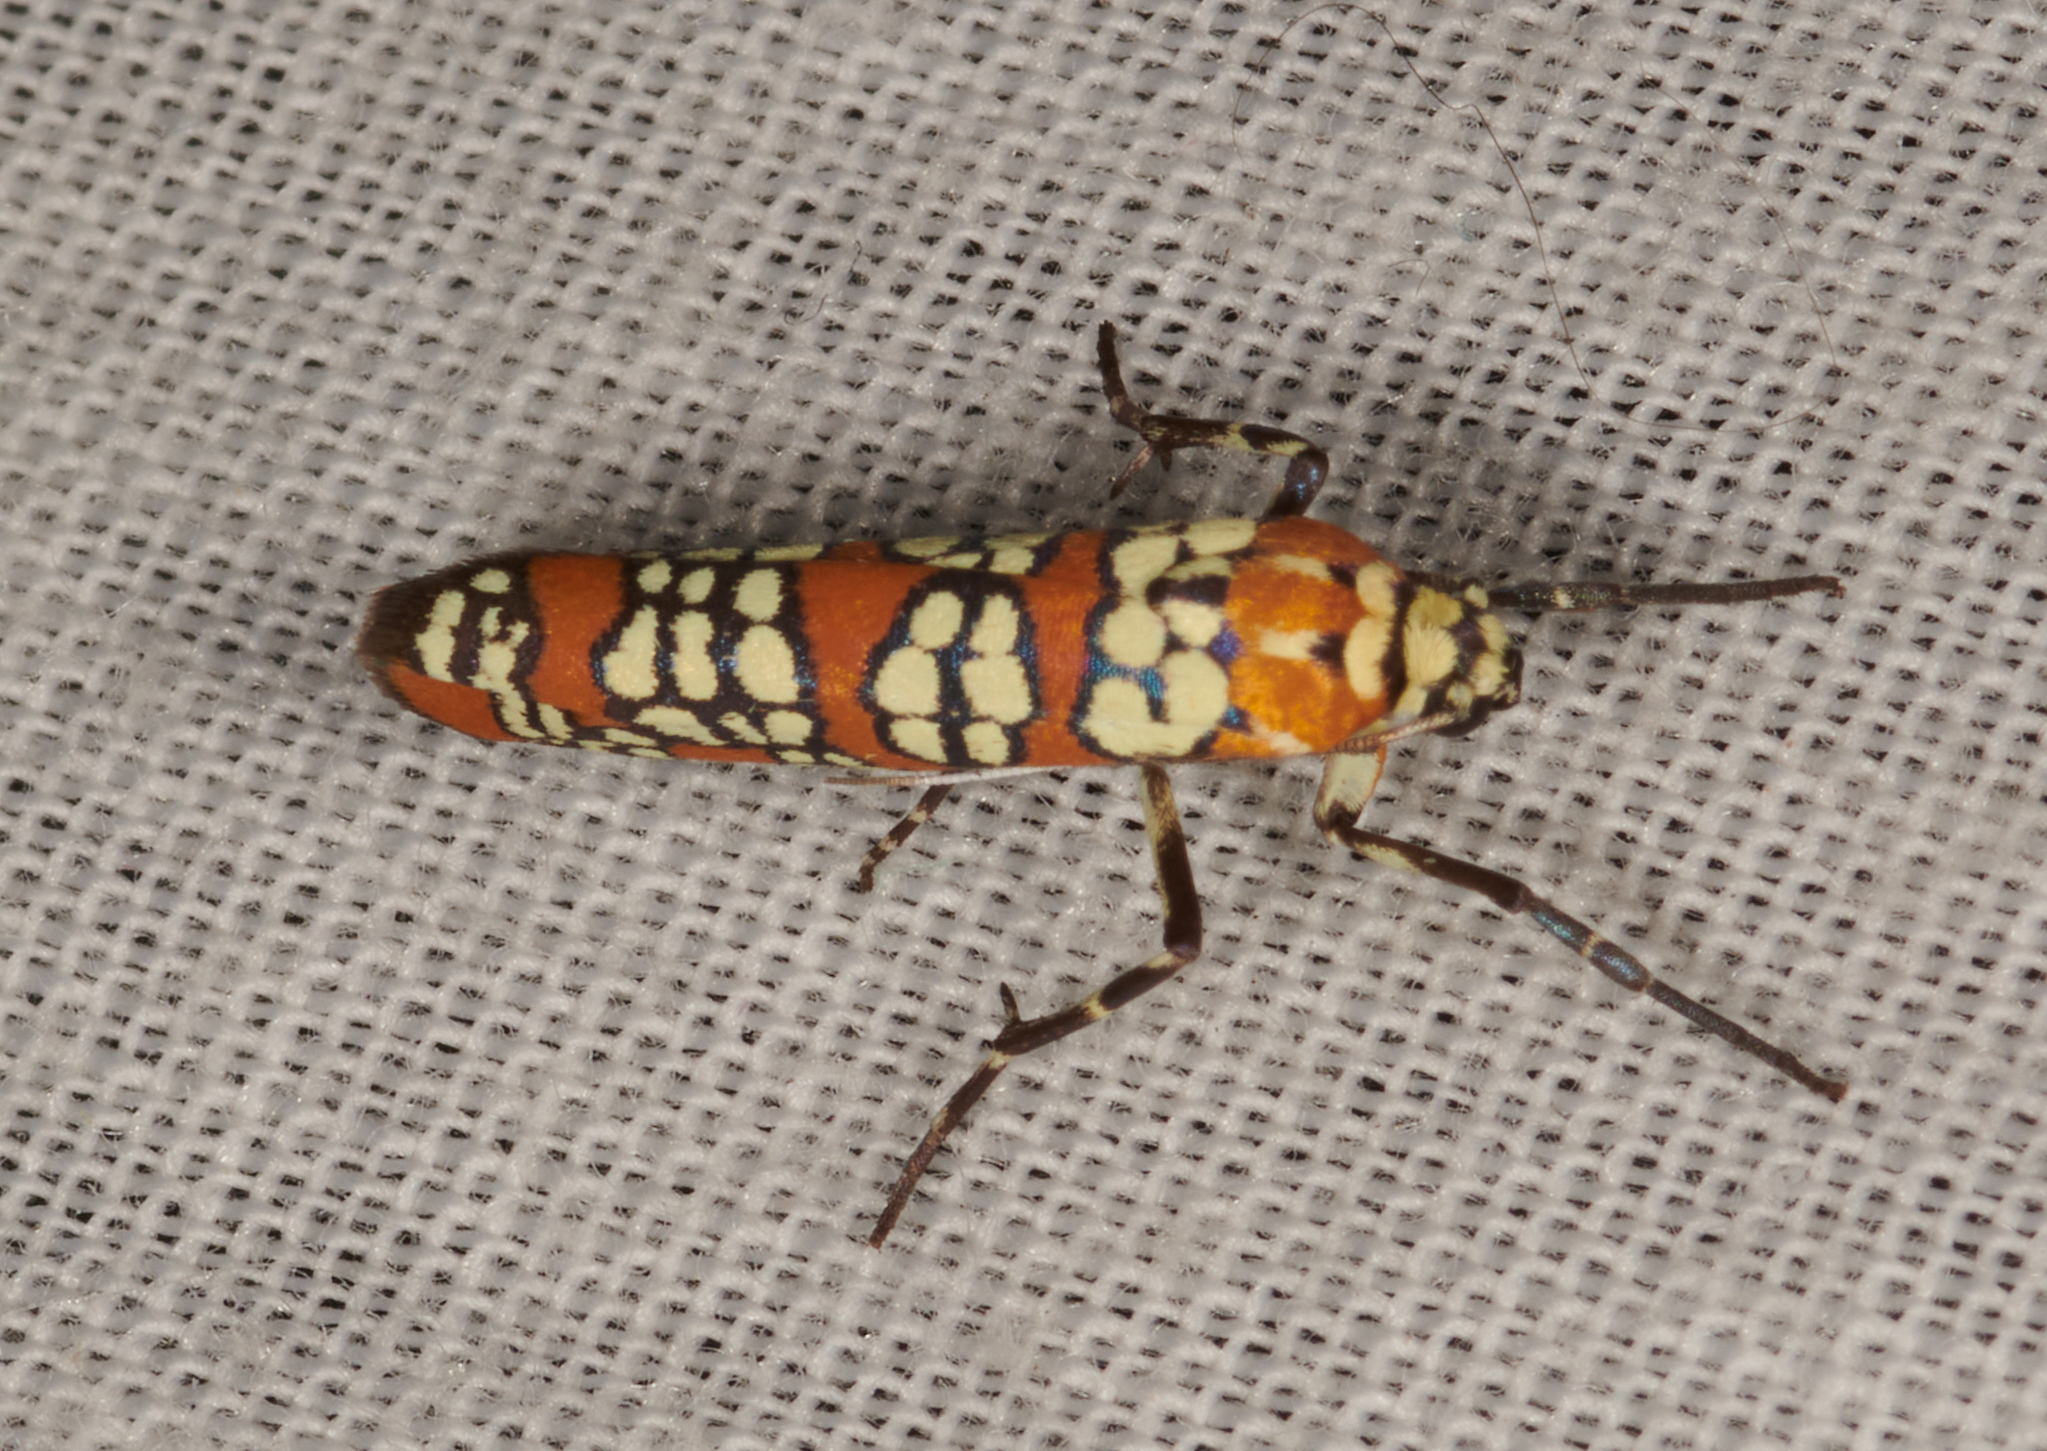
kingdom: Animalia
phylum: Arthropoda
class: Insecta
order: Lepidoptera
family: Attevidae
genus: Atteva
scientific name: Atteva punctella
